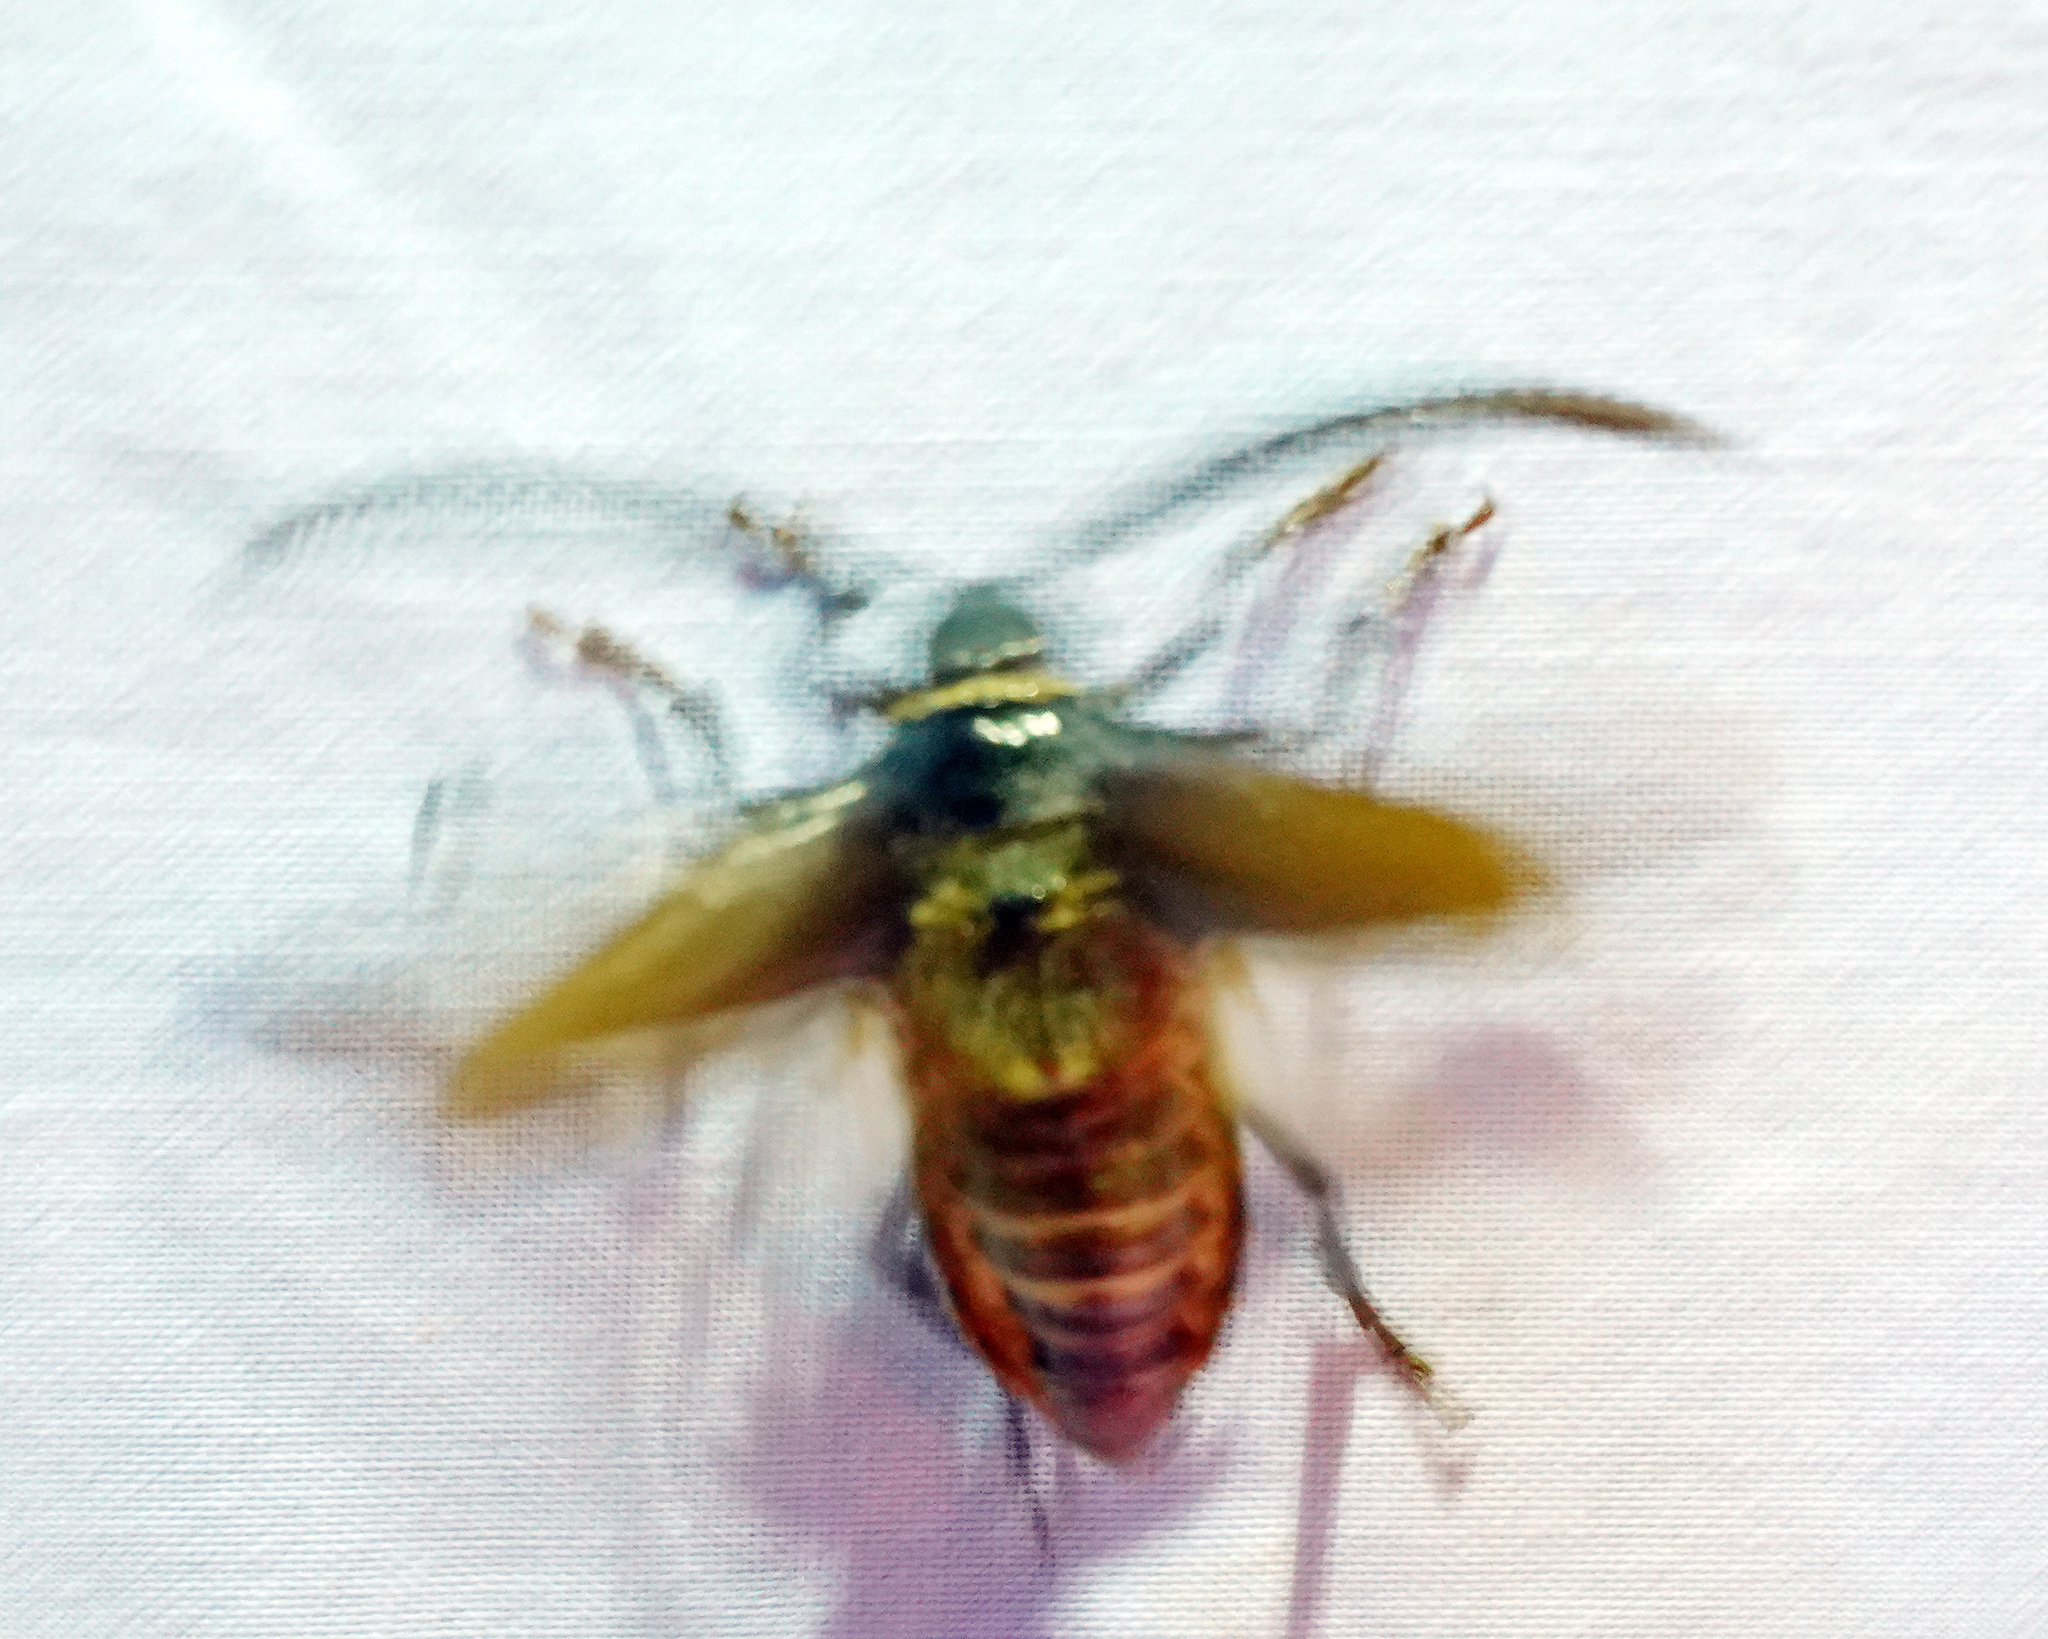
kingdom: Animalia
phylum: Arthropoda
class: Insecta
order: Coleoptera
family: Cerambycidae
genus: Prionus
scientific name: Prionus imbricornis
